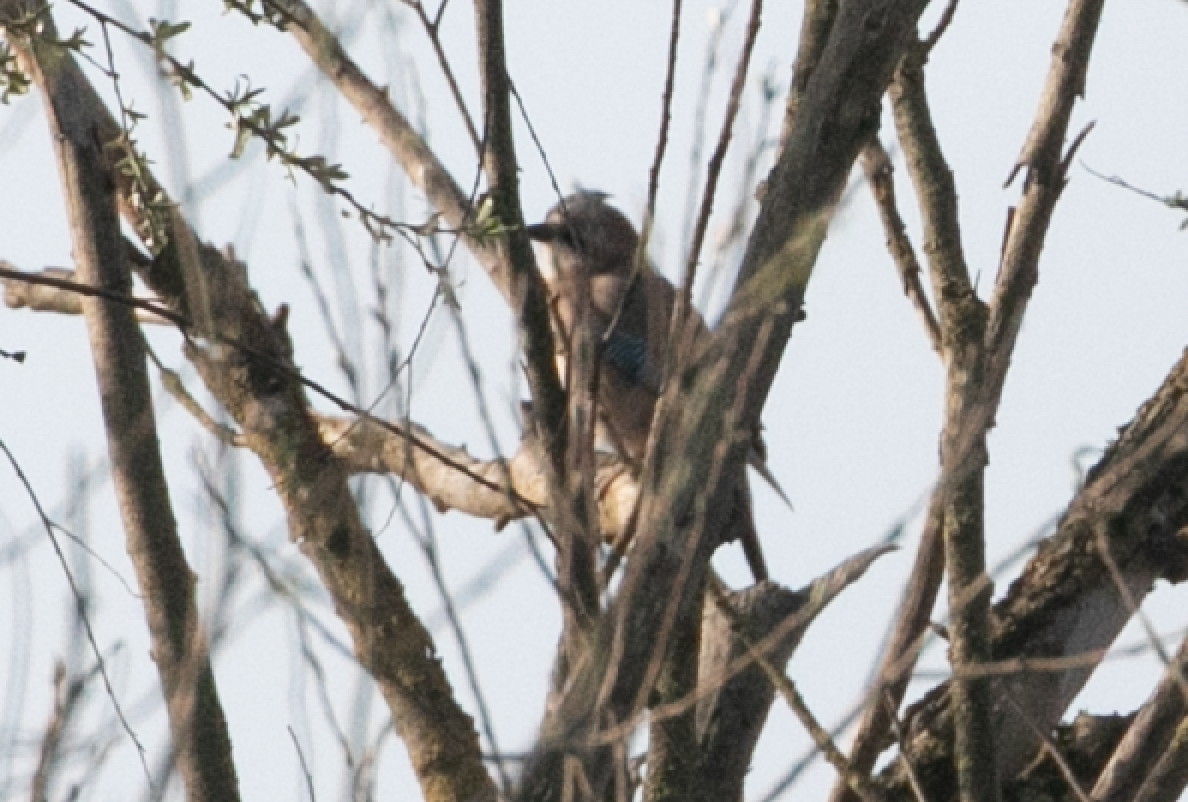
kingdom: Animalia
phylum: Chordata
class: Aves
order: Passeriformes
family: Corvidae
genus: Garrulus
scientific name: Garrulus glandarius
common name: Eurasian jay
